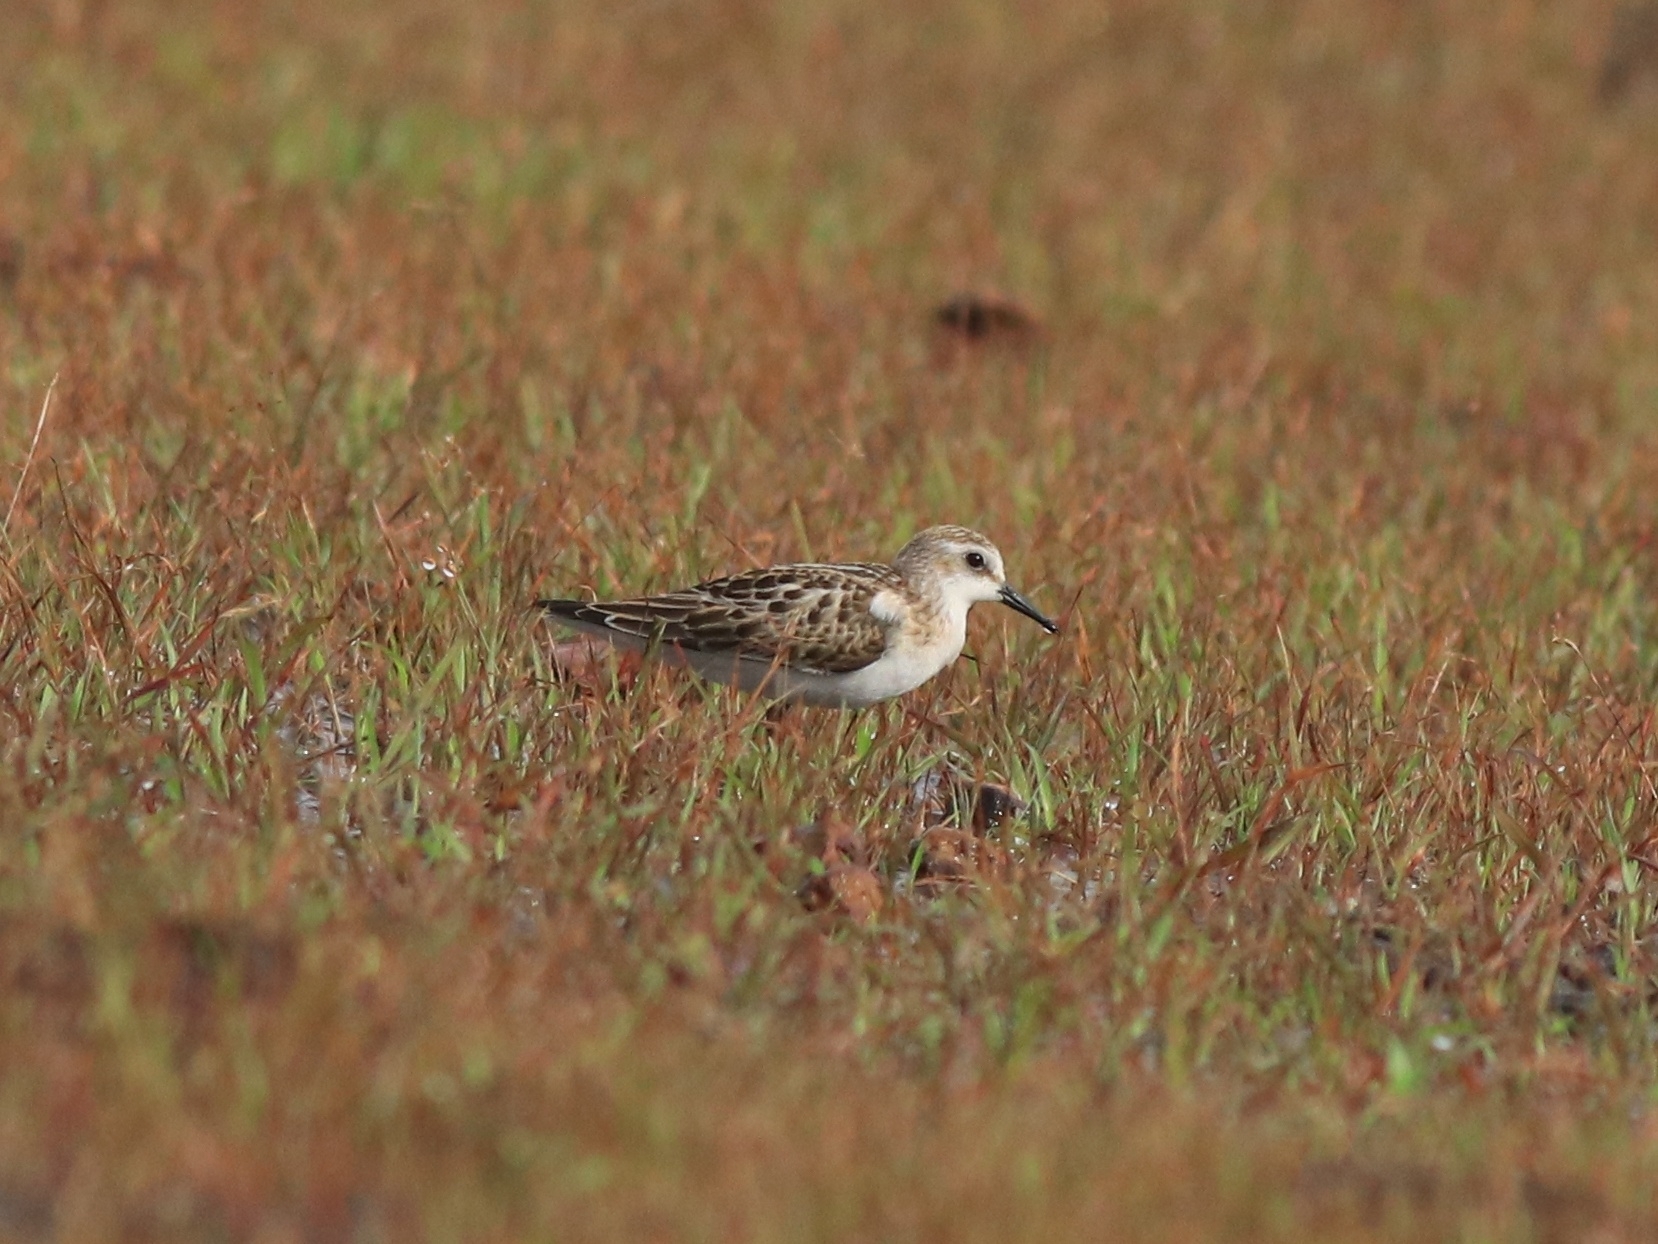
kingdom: Animalia
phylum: Chordata
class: Aves
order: Charadriiformes
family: Scolopacidae
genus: Calidris
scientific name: Calidris minuta
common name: Little stint
